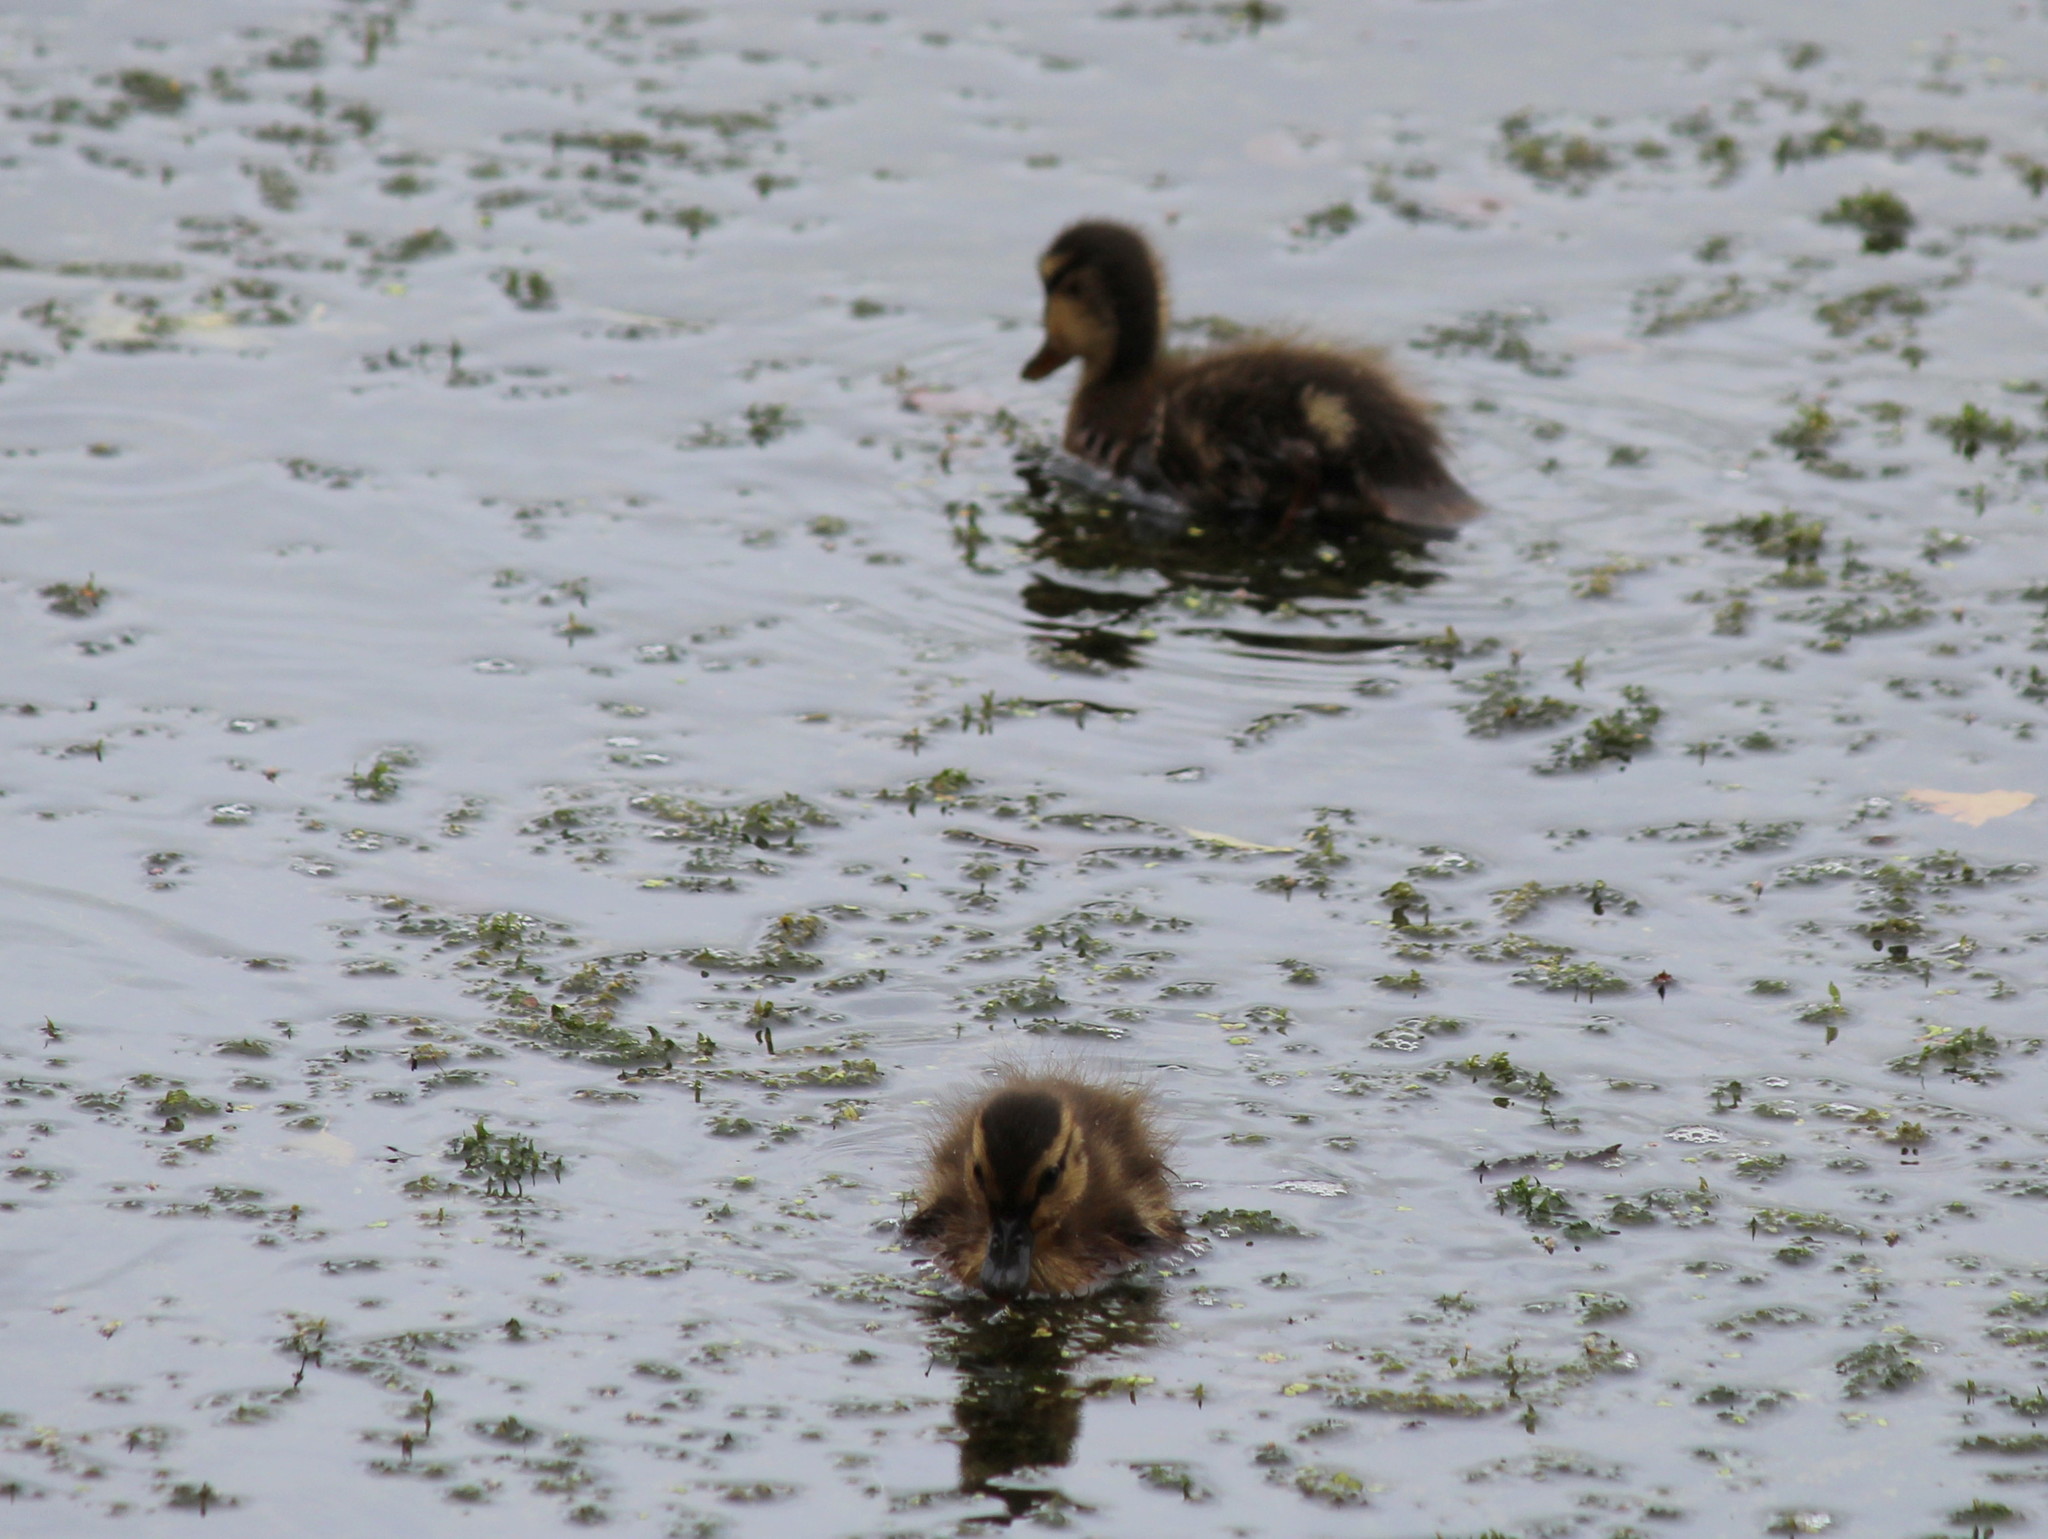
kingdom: Animalia
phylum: Chordata
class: Aves
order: Anseriformes
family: Anatidae
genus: Anas
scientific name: Anas platyrhynchos
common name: Mallard
